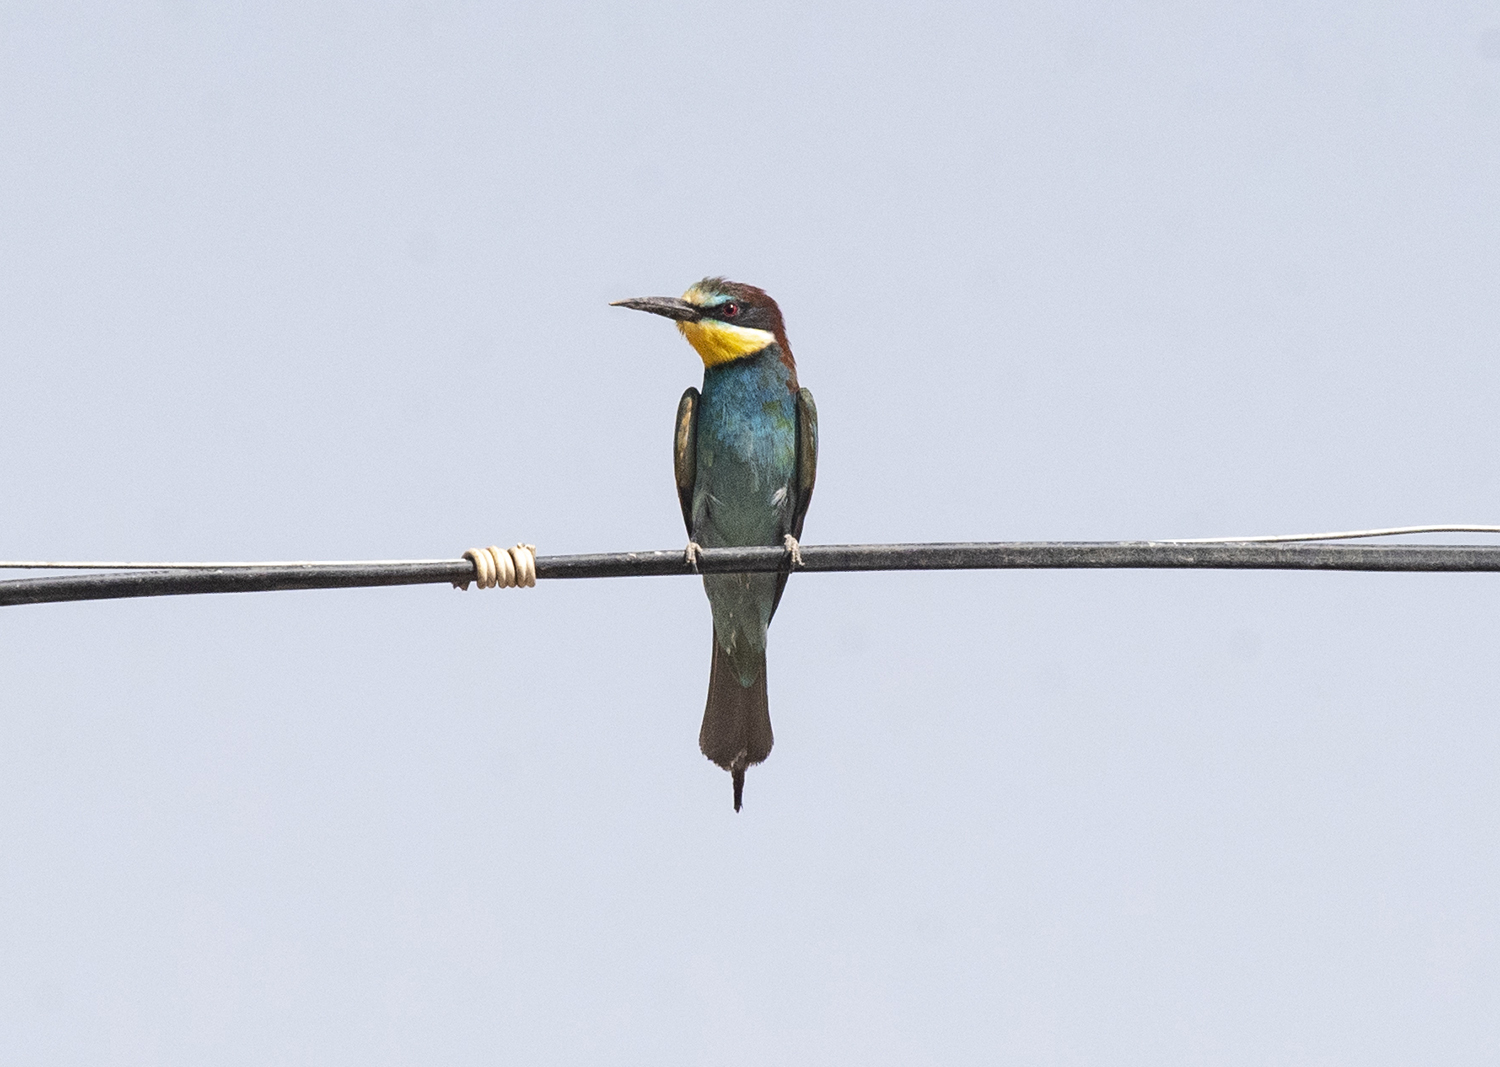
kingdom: Animalia
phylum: Chordata
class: Aves
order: Coraciiformes
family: Meropidae
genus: Merops
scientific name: Merops apiaster
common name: European bee-eater
